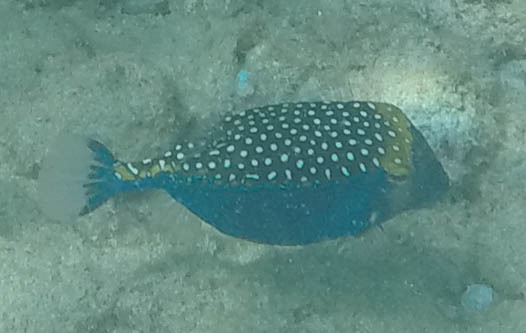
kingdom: Animalia
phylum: Chordata
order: Tetraodontiformes
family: Ostraciidae
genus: Ostracion
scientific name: Ostracion meleagris
